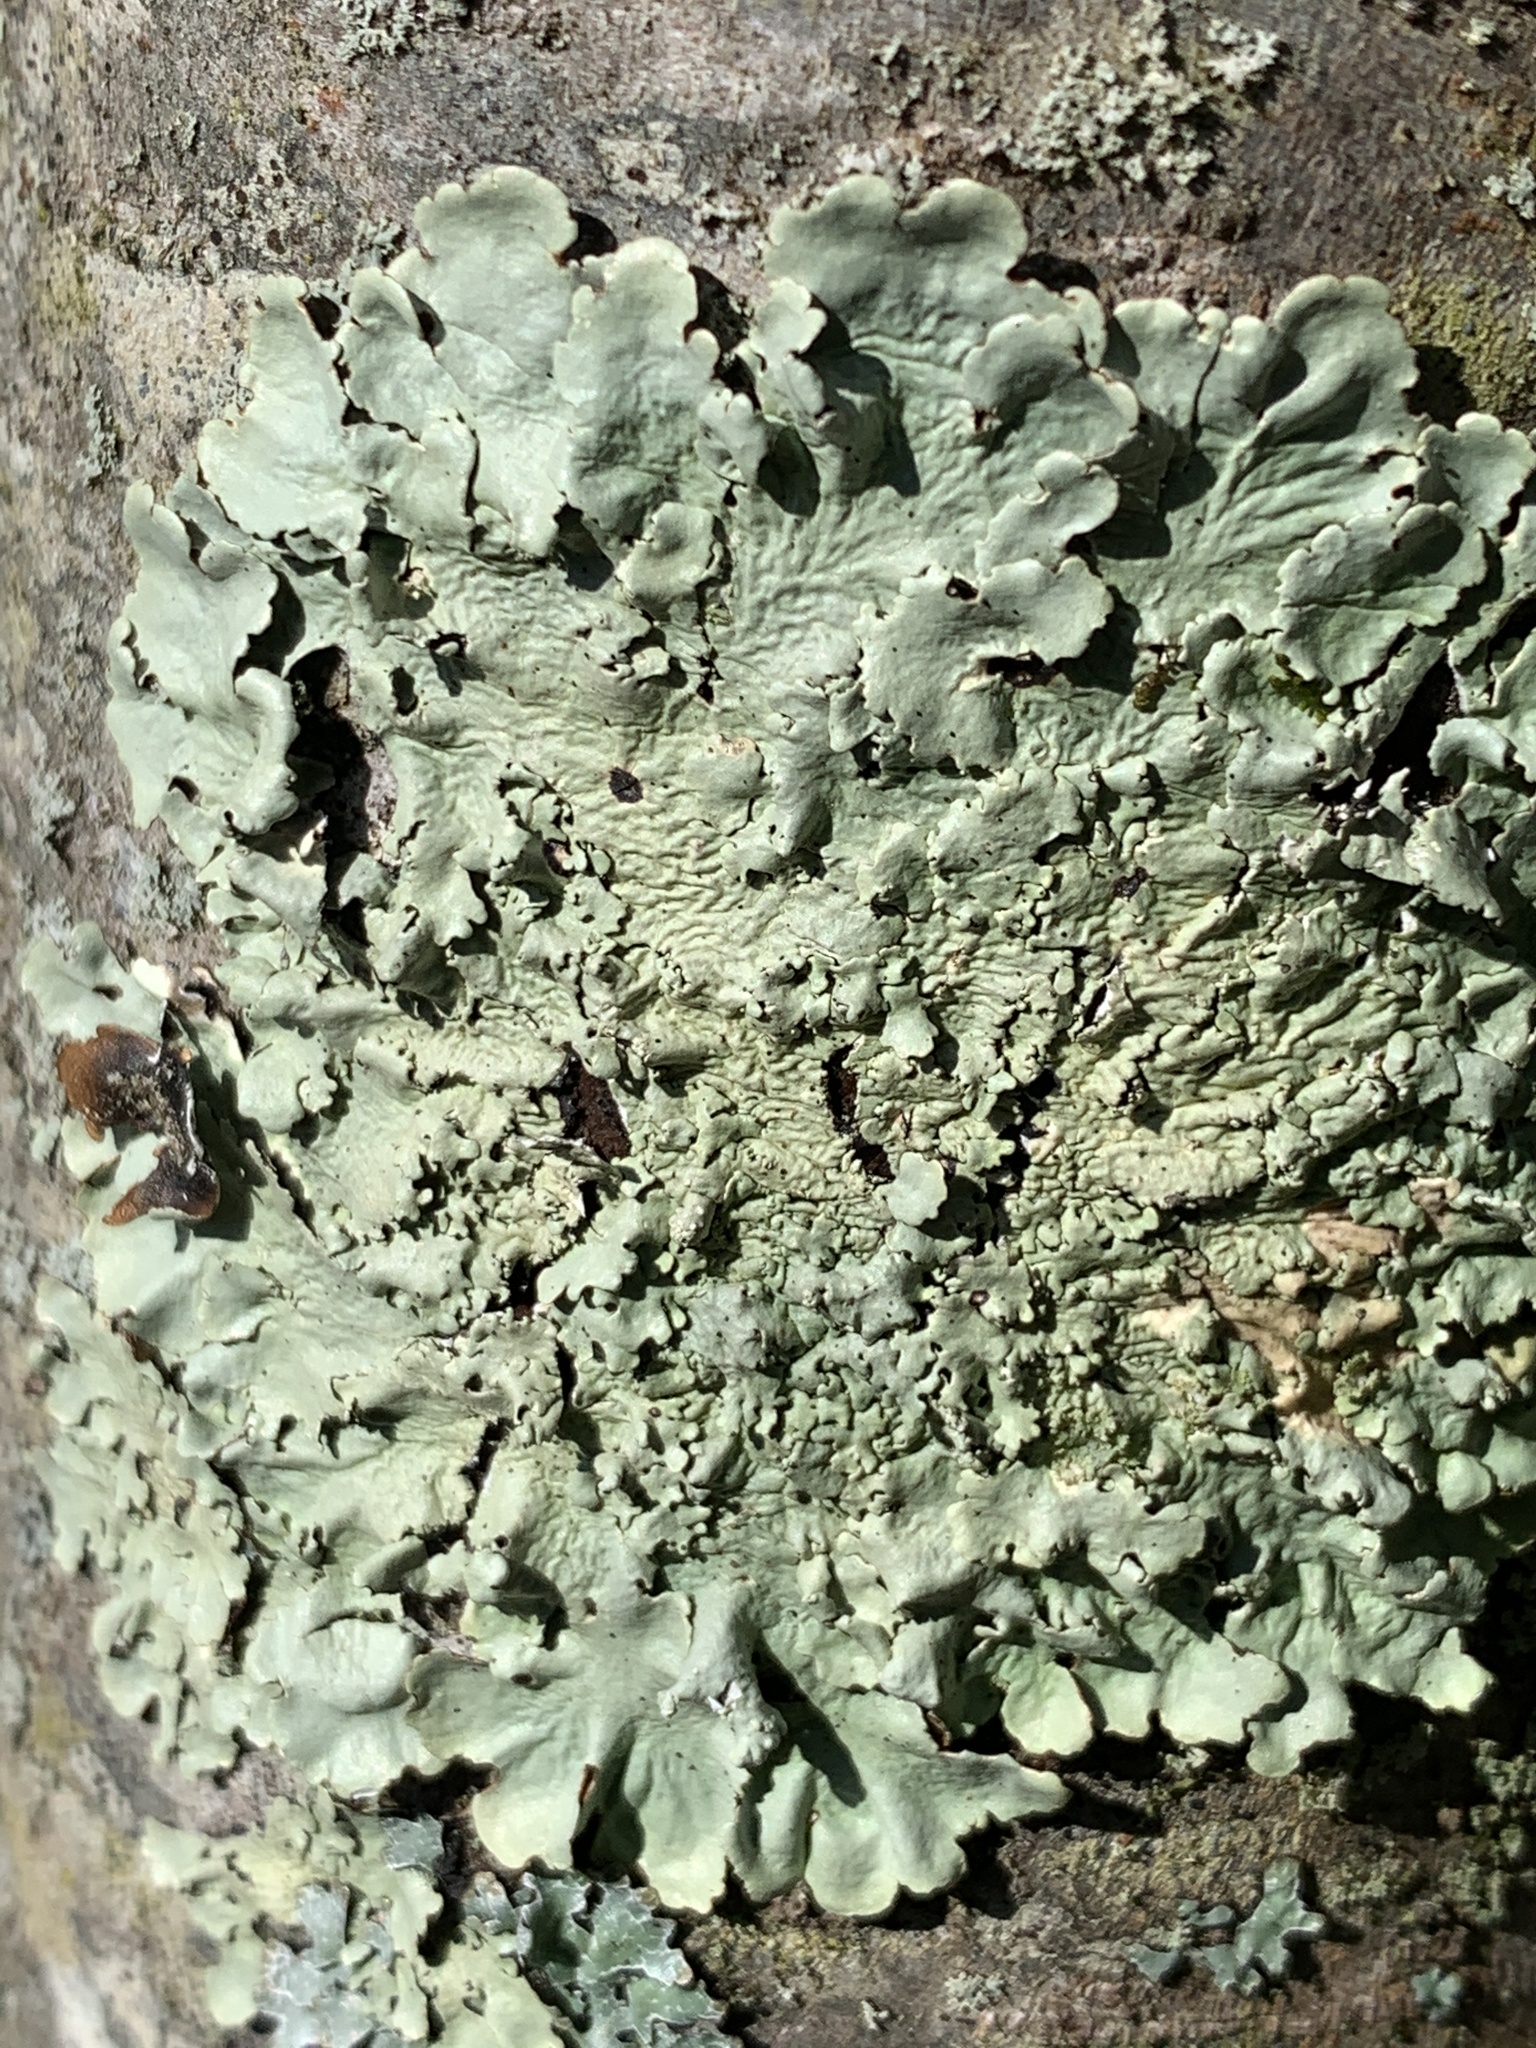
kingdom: Fungi
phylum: Ascomycota
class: Lecanoromycetes
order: Lecanorales
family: Parmeliaceae
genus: Flavoparmelia
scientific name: Flavoparmelia caperata
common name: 40-mile per hour lichen
